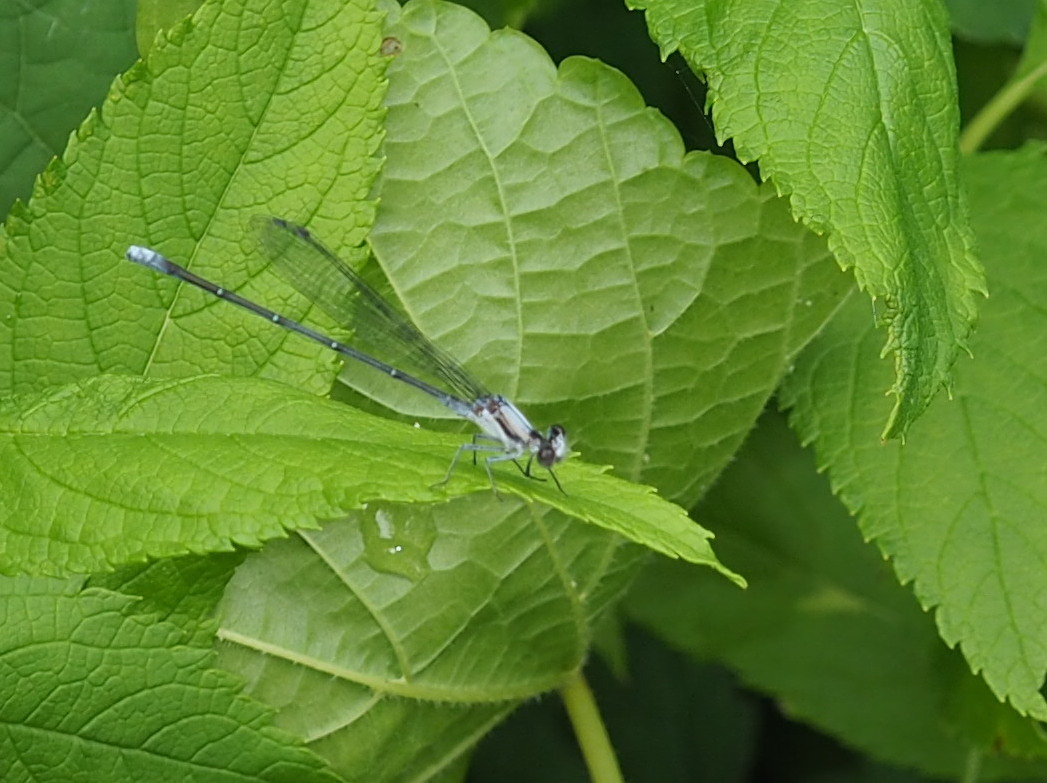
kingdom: Animalia
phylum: Arthropoda
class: Insecta
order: Odonata
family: Coenagrionidae
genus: Argia
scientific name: Argia moesta
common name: Powdered dancer
